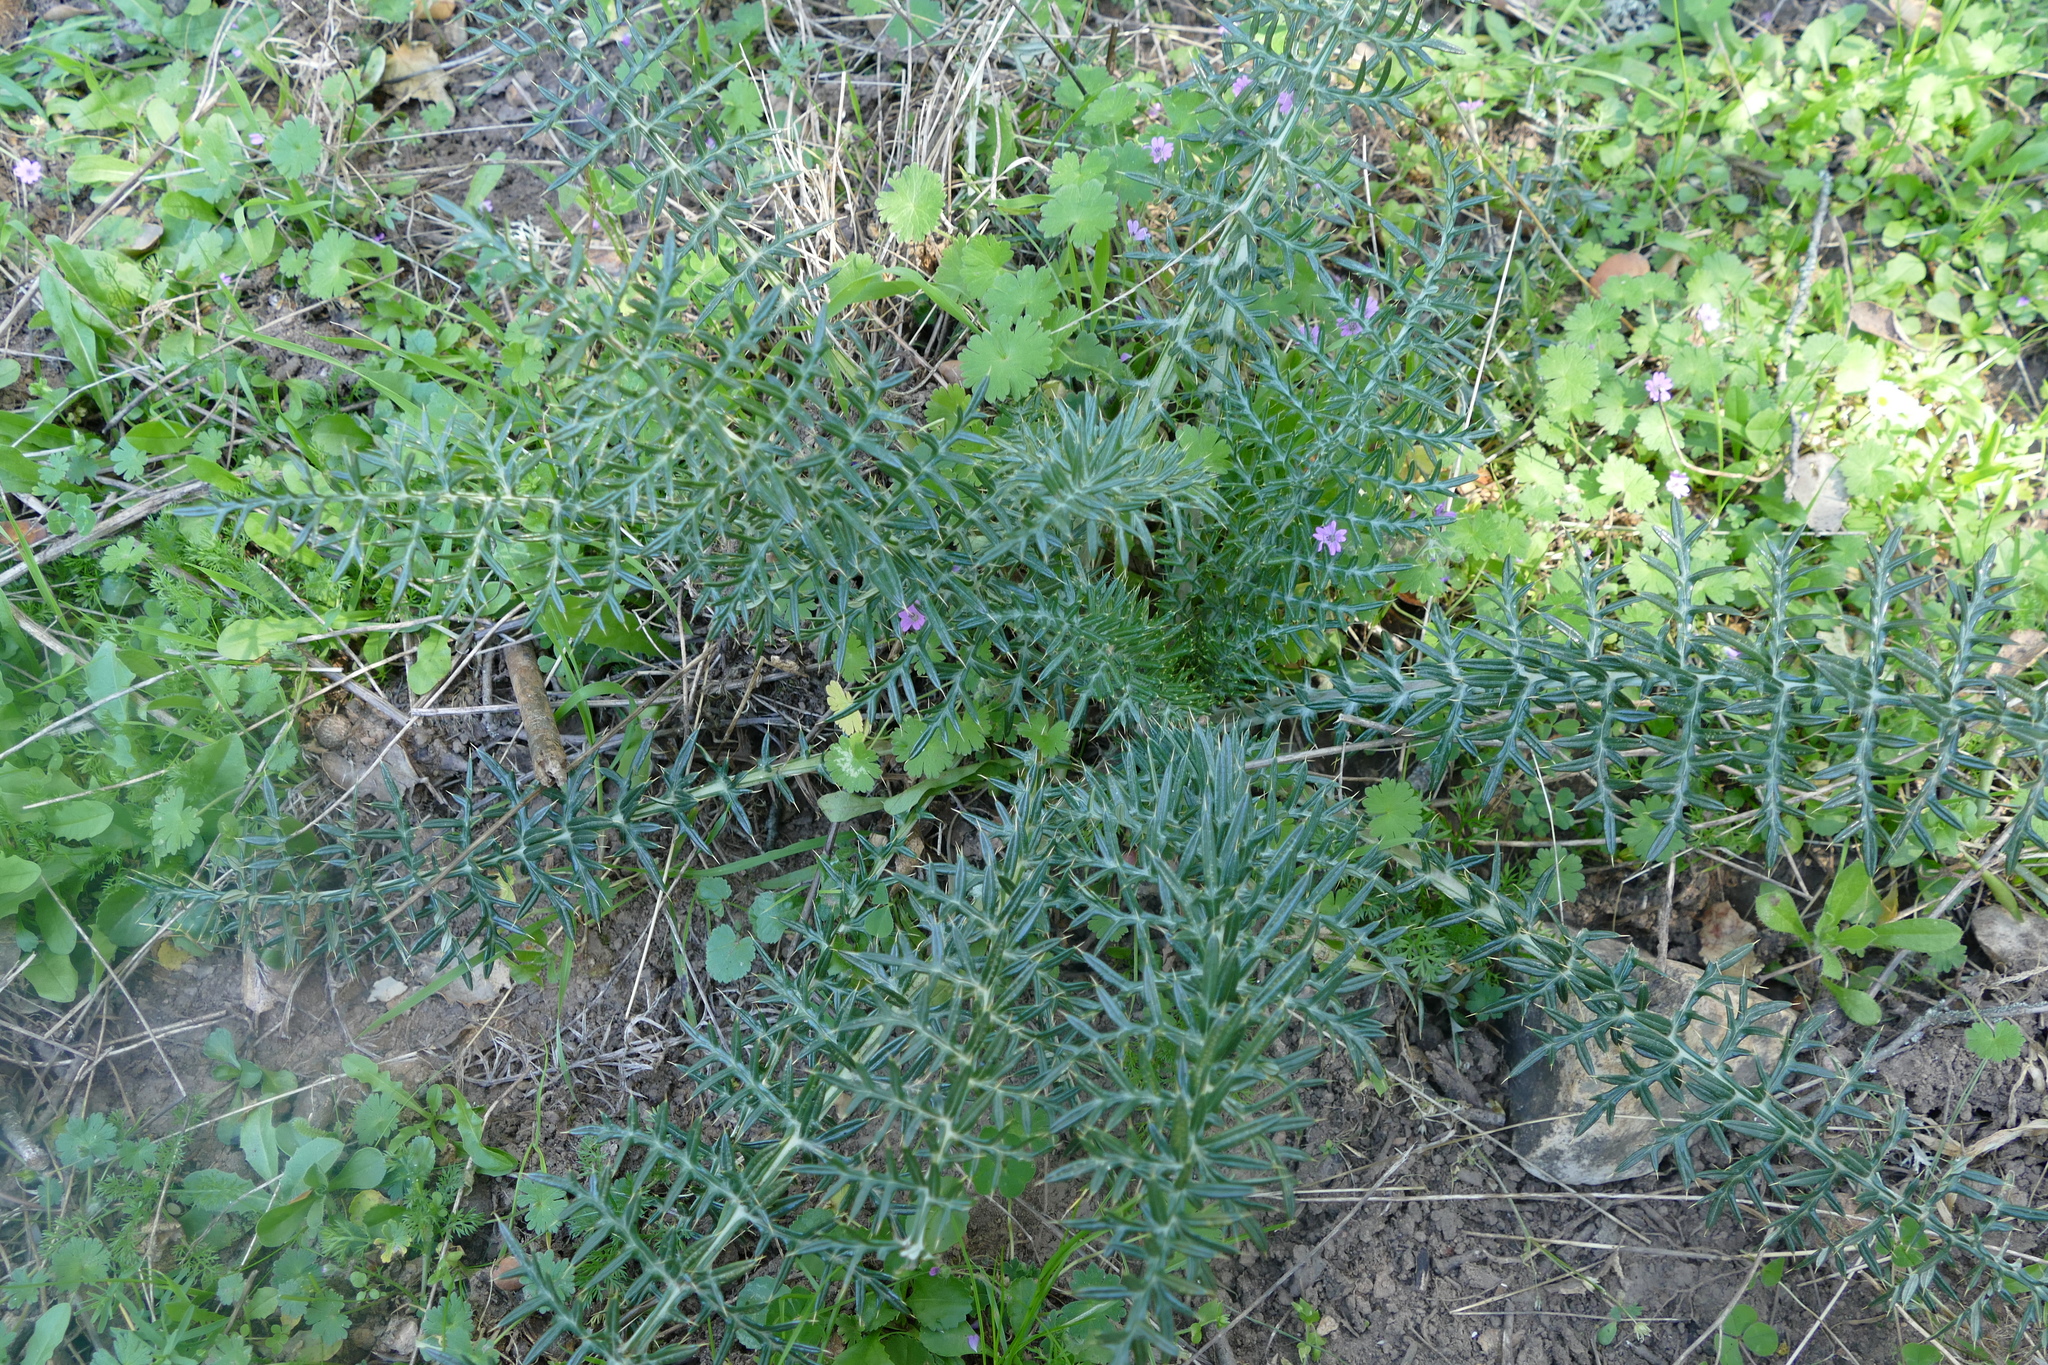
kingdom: Plantae
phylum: Tracheophyta
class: Magnoliopsida
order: Asterales
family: Asteraceae
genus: Cynara
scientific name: Cynara humilis
